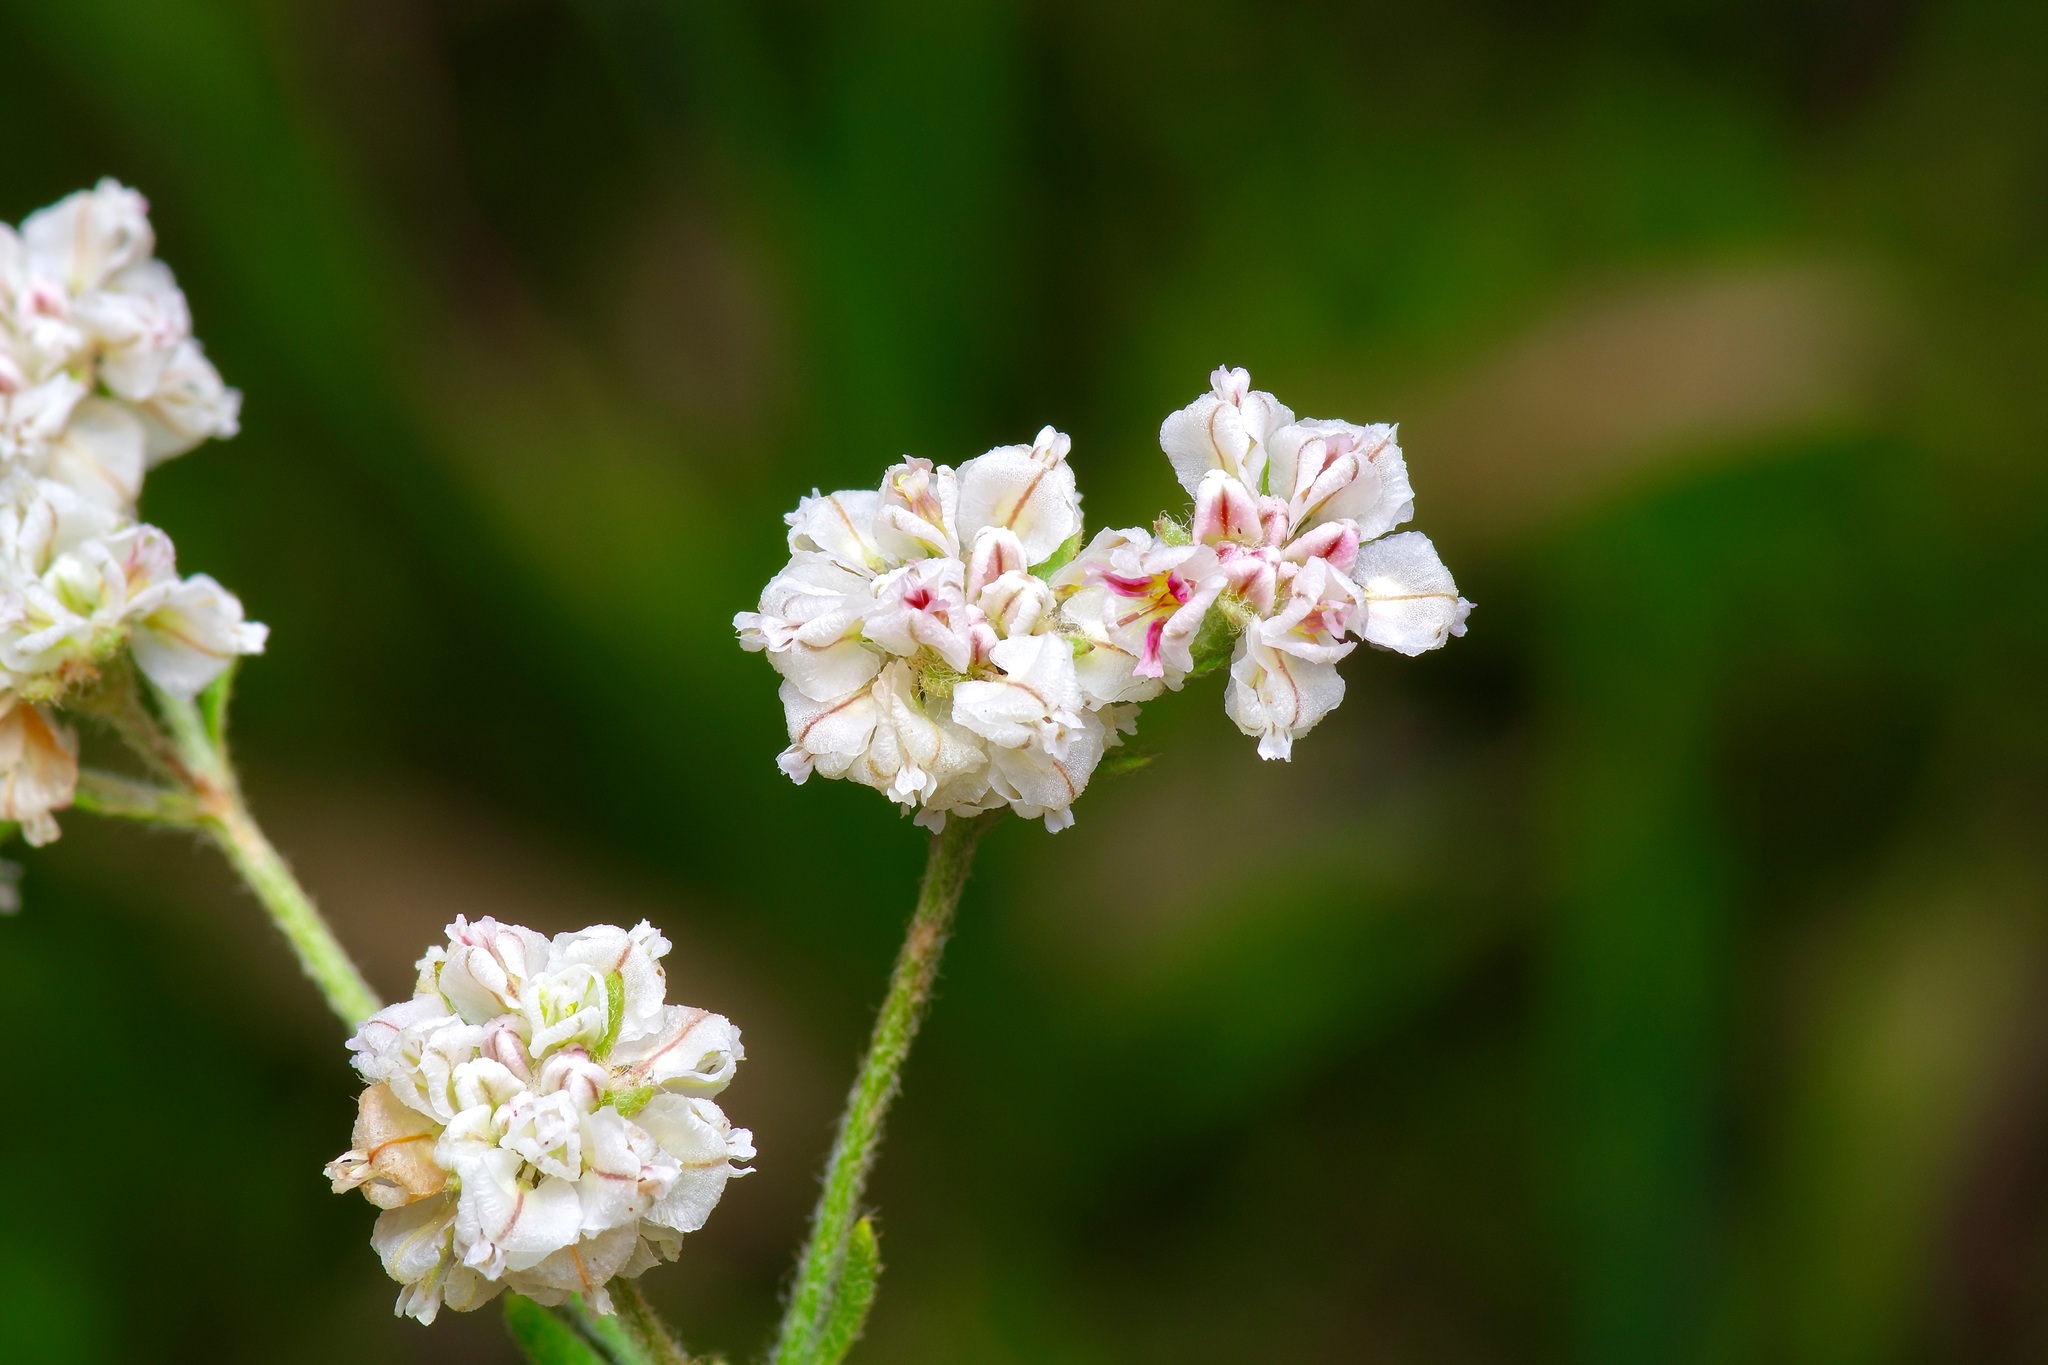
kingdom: Plantae
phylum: Tracheophyta
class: Magnoliopsida
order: Caryophyllales
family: Polygonaceae
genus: Eriogonum
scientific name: Eriogonum abertianum
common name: Abert's wild buckwheat
